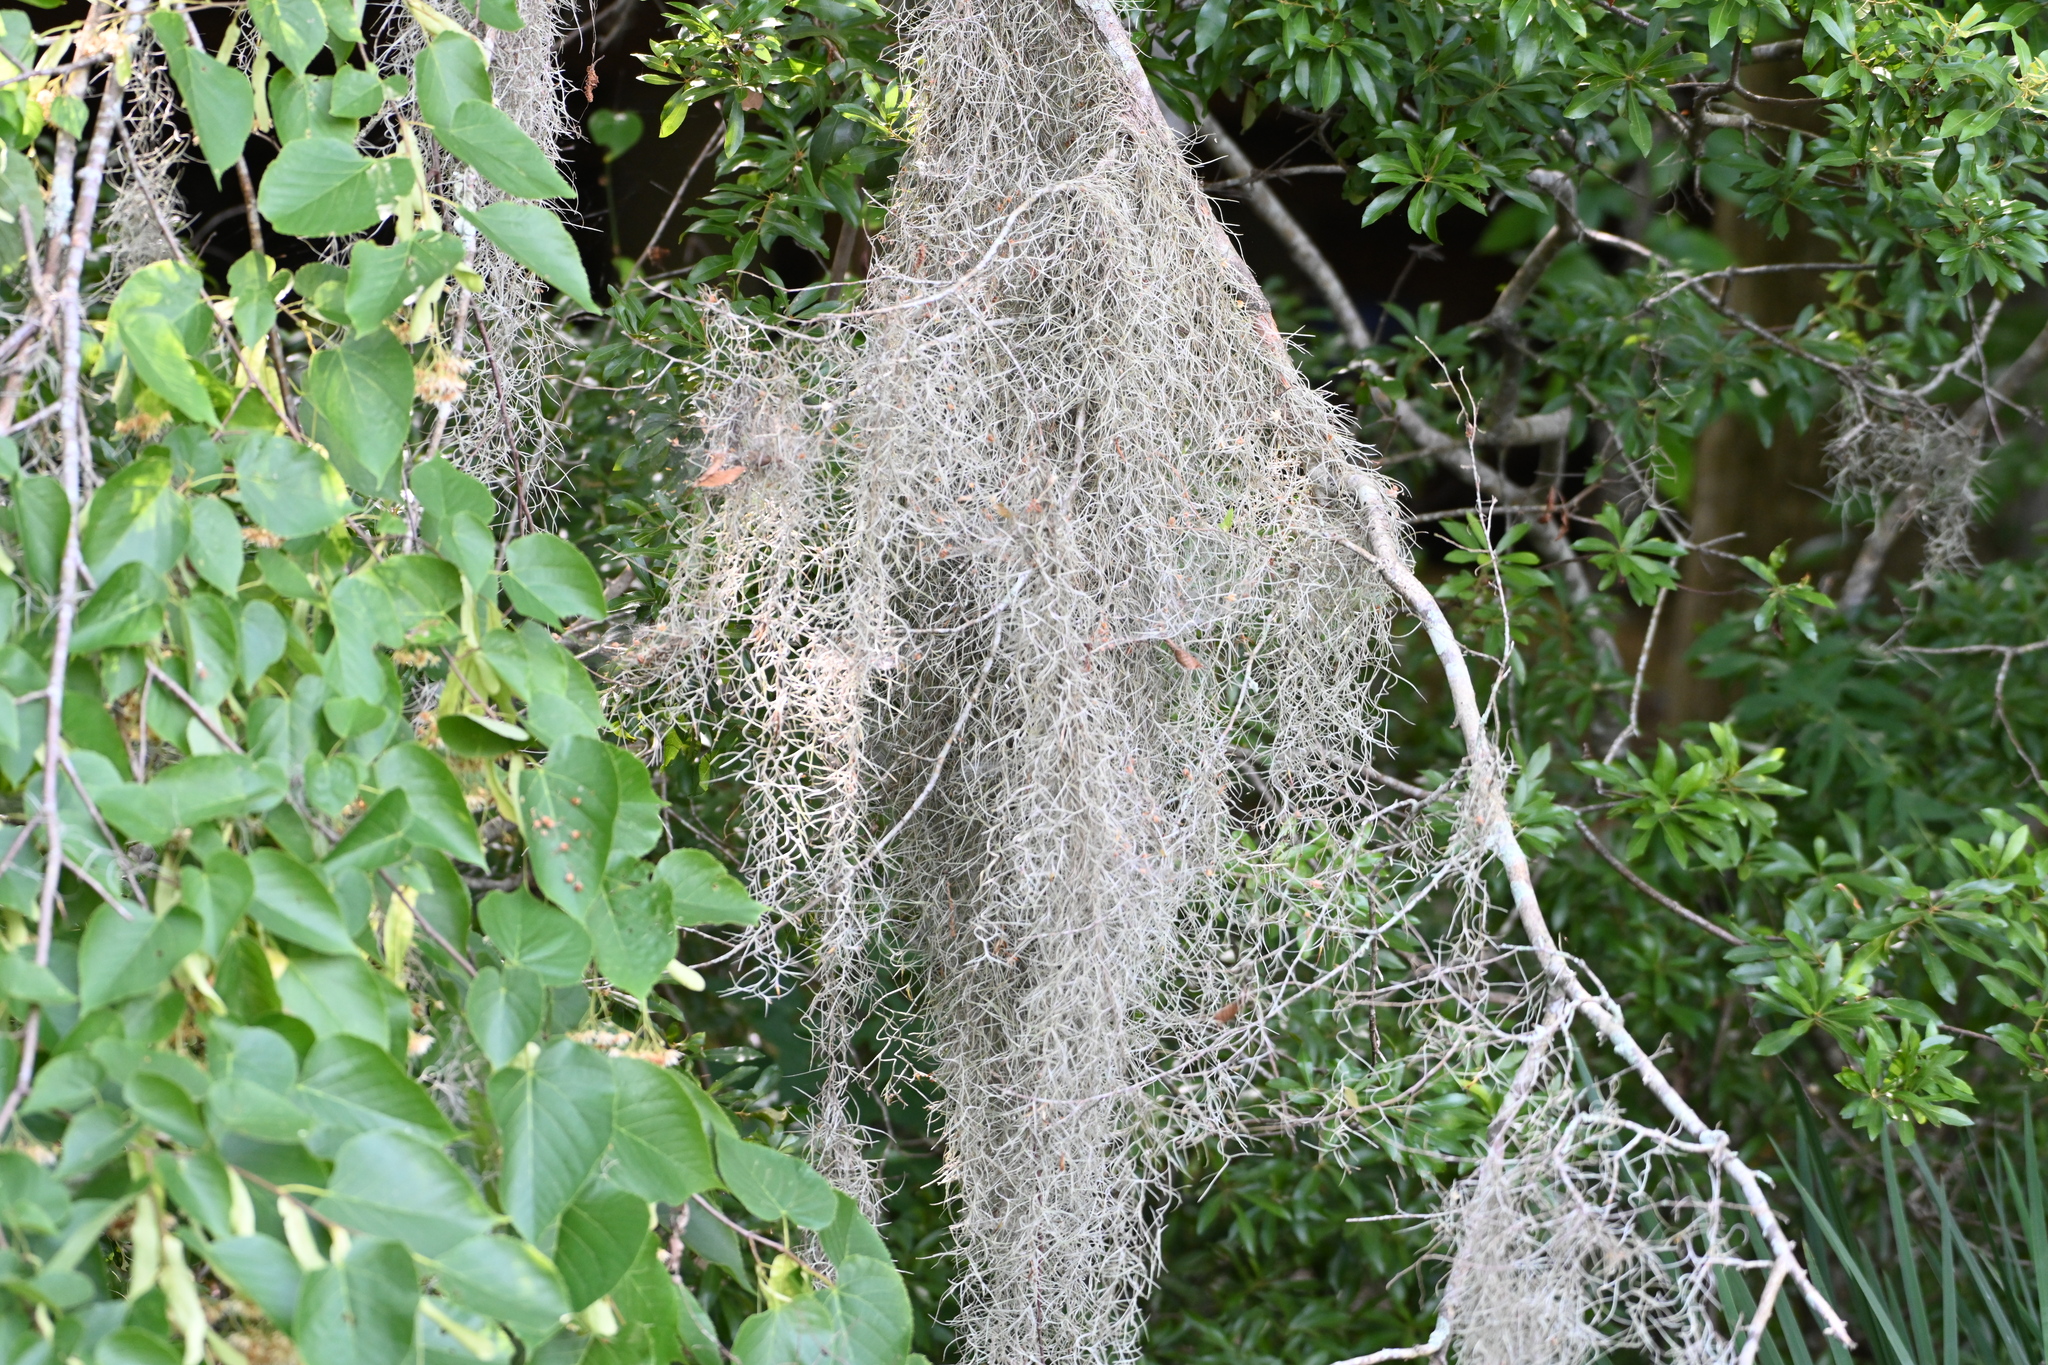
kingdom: Animalia
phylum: Chordata
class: Aves
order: Passeriformes
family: Parulidae
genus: Setophaga
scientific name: Setophaga americana
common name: Northern parula
